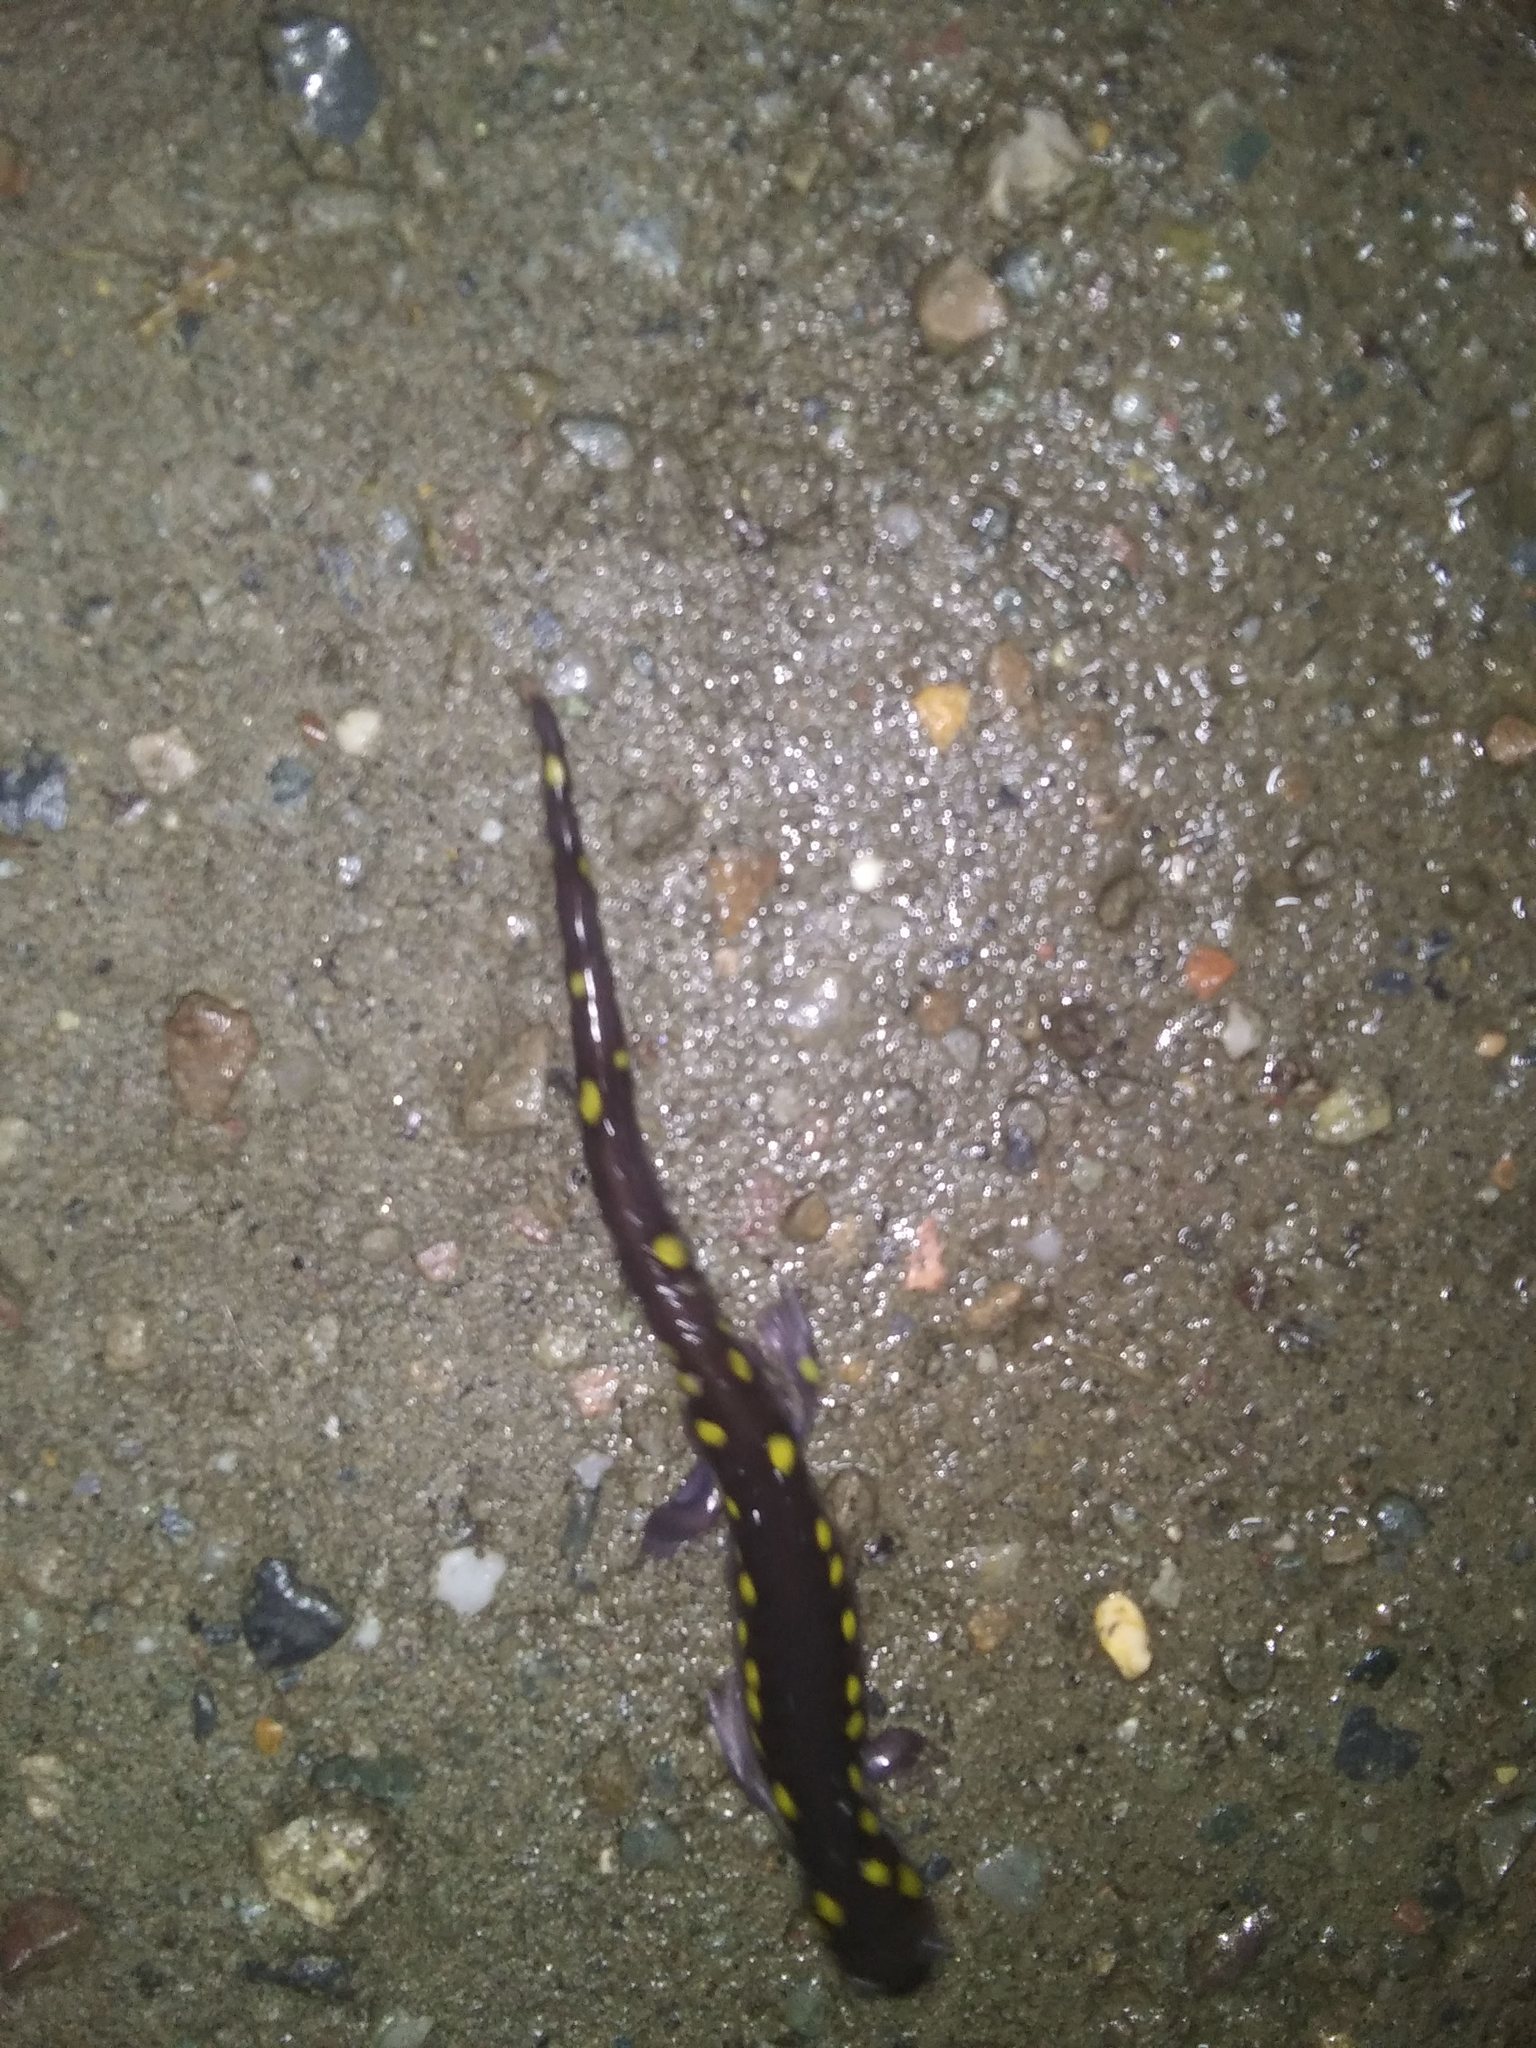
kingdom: Animalia
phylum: Chordata
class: Amphibia
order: Caudata
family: Ambystomatidae
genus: Ambystoma
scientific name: Ambystoma maculatum
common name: Spotted salamander
